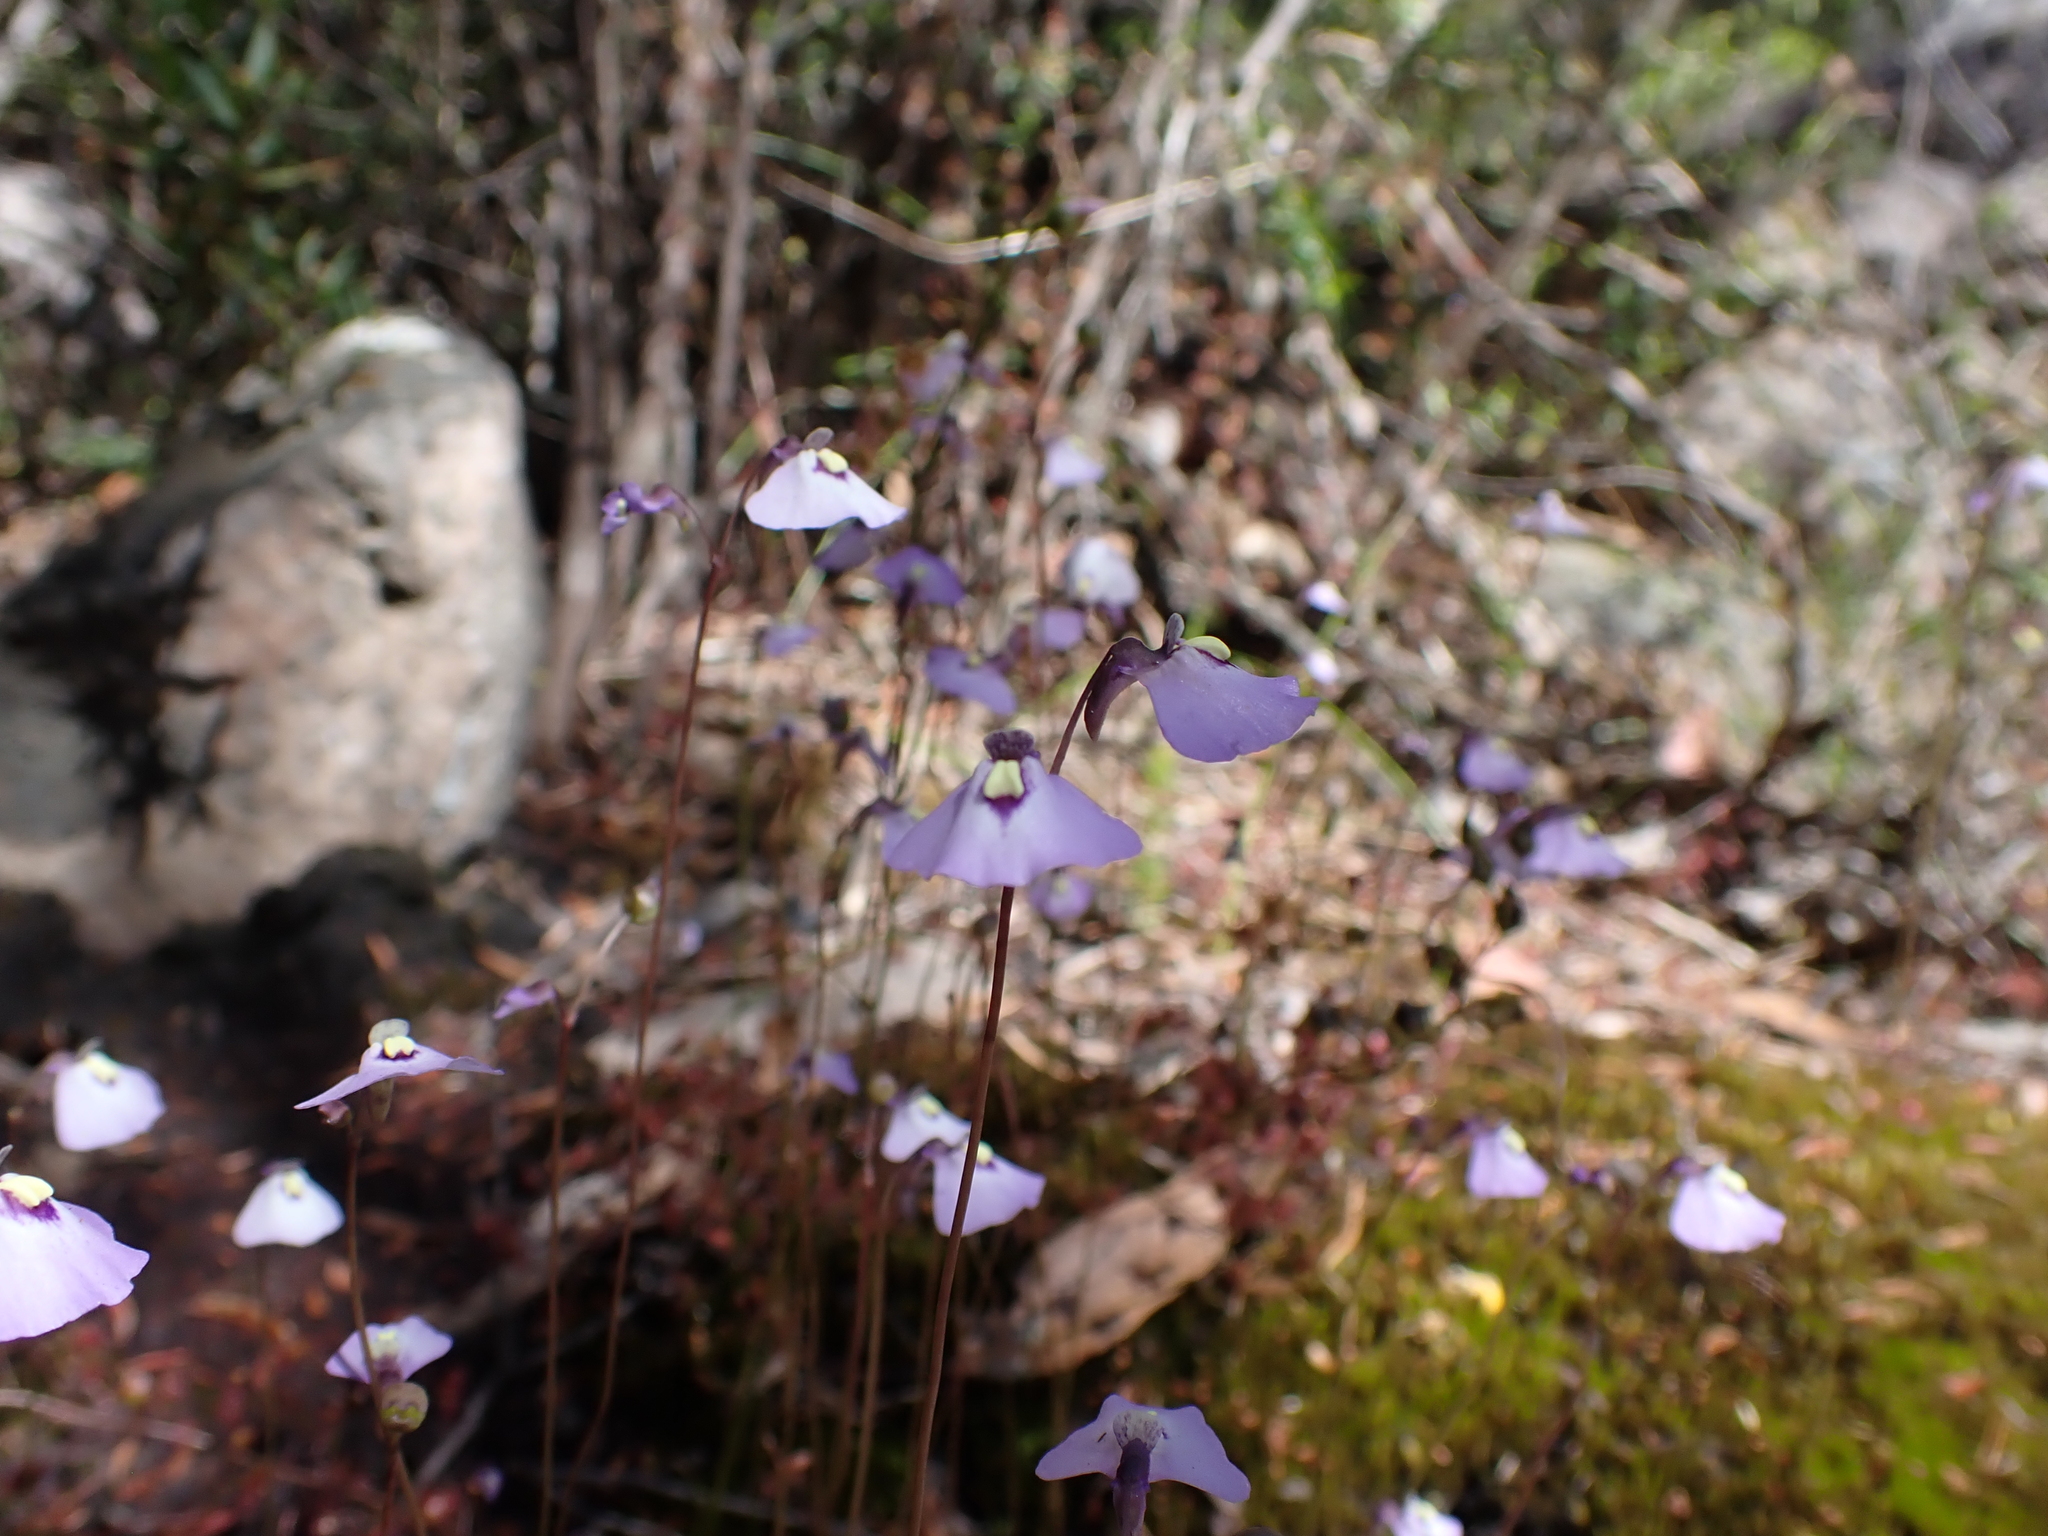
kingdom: Plantae
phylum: Tracheophyta
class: Magnoliopsida
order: Lamiales
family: Lentibulariaceae
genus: Utricularia
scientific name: Utricularia grampiana
